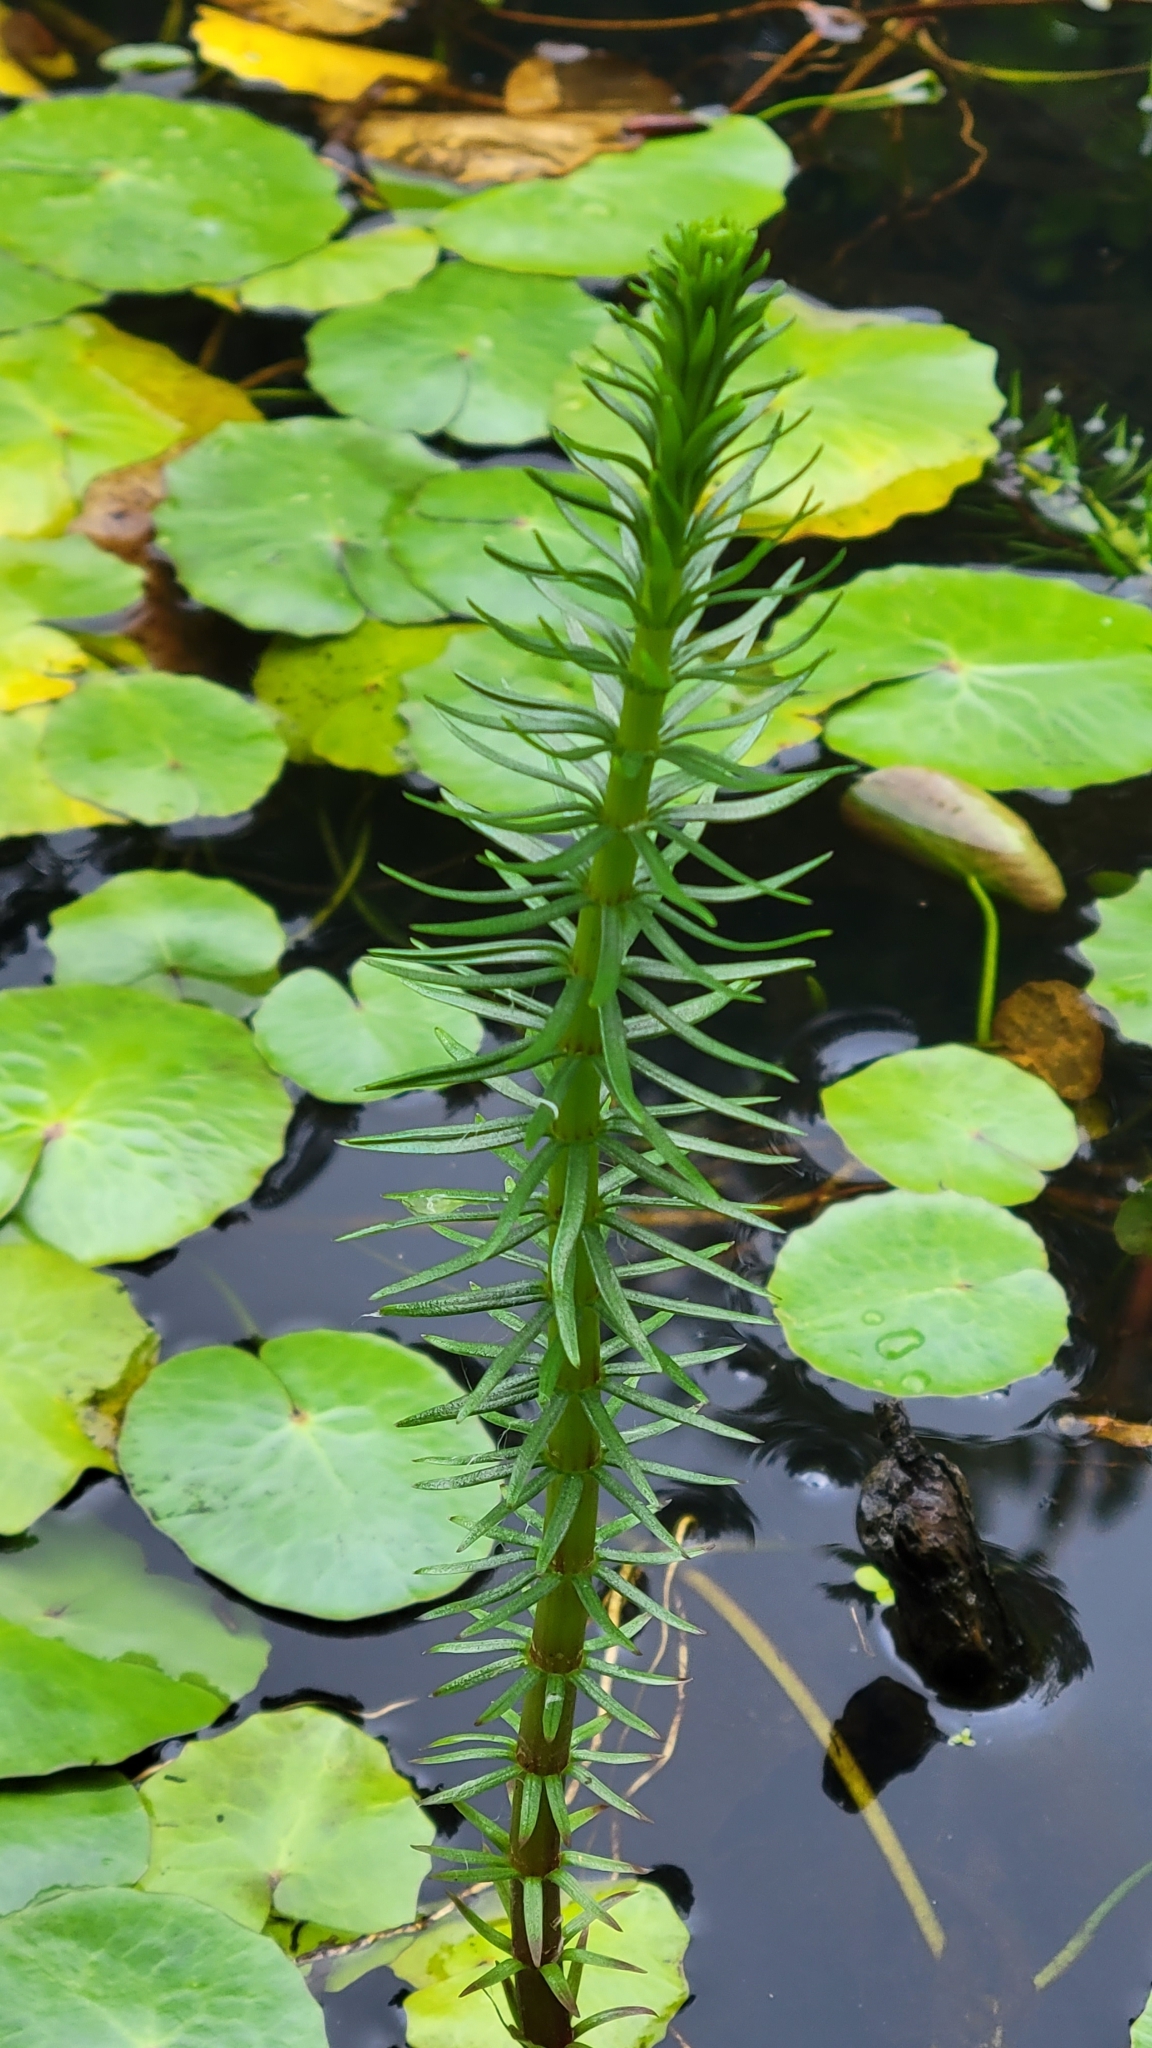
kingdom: Plantae
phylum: Tracheophyta
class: Magnoliopsida
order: Lamiales
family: Plantaginaceae
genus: Hippuris
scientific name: Hippuris vulgaris
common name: Mare's-tail
